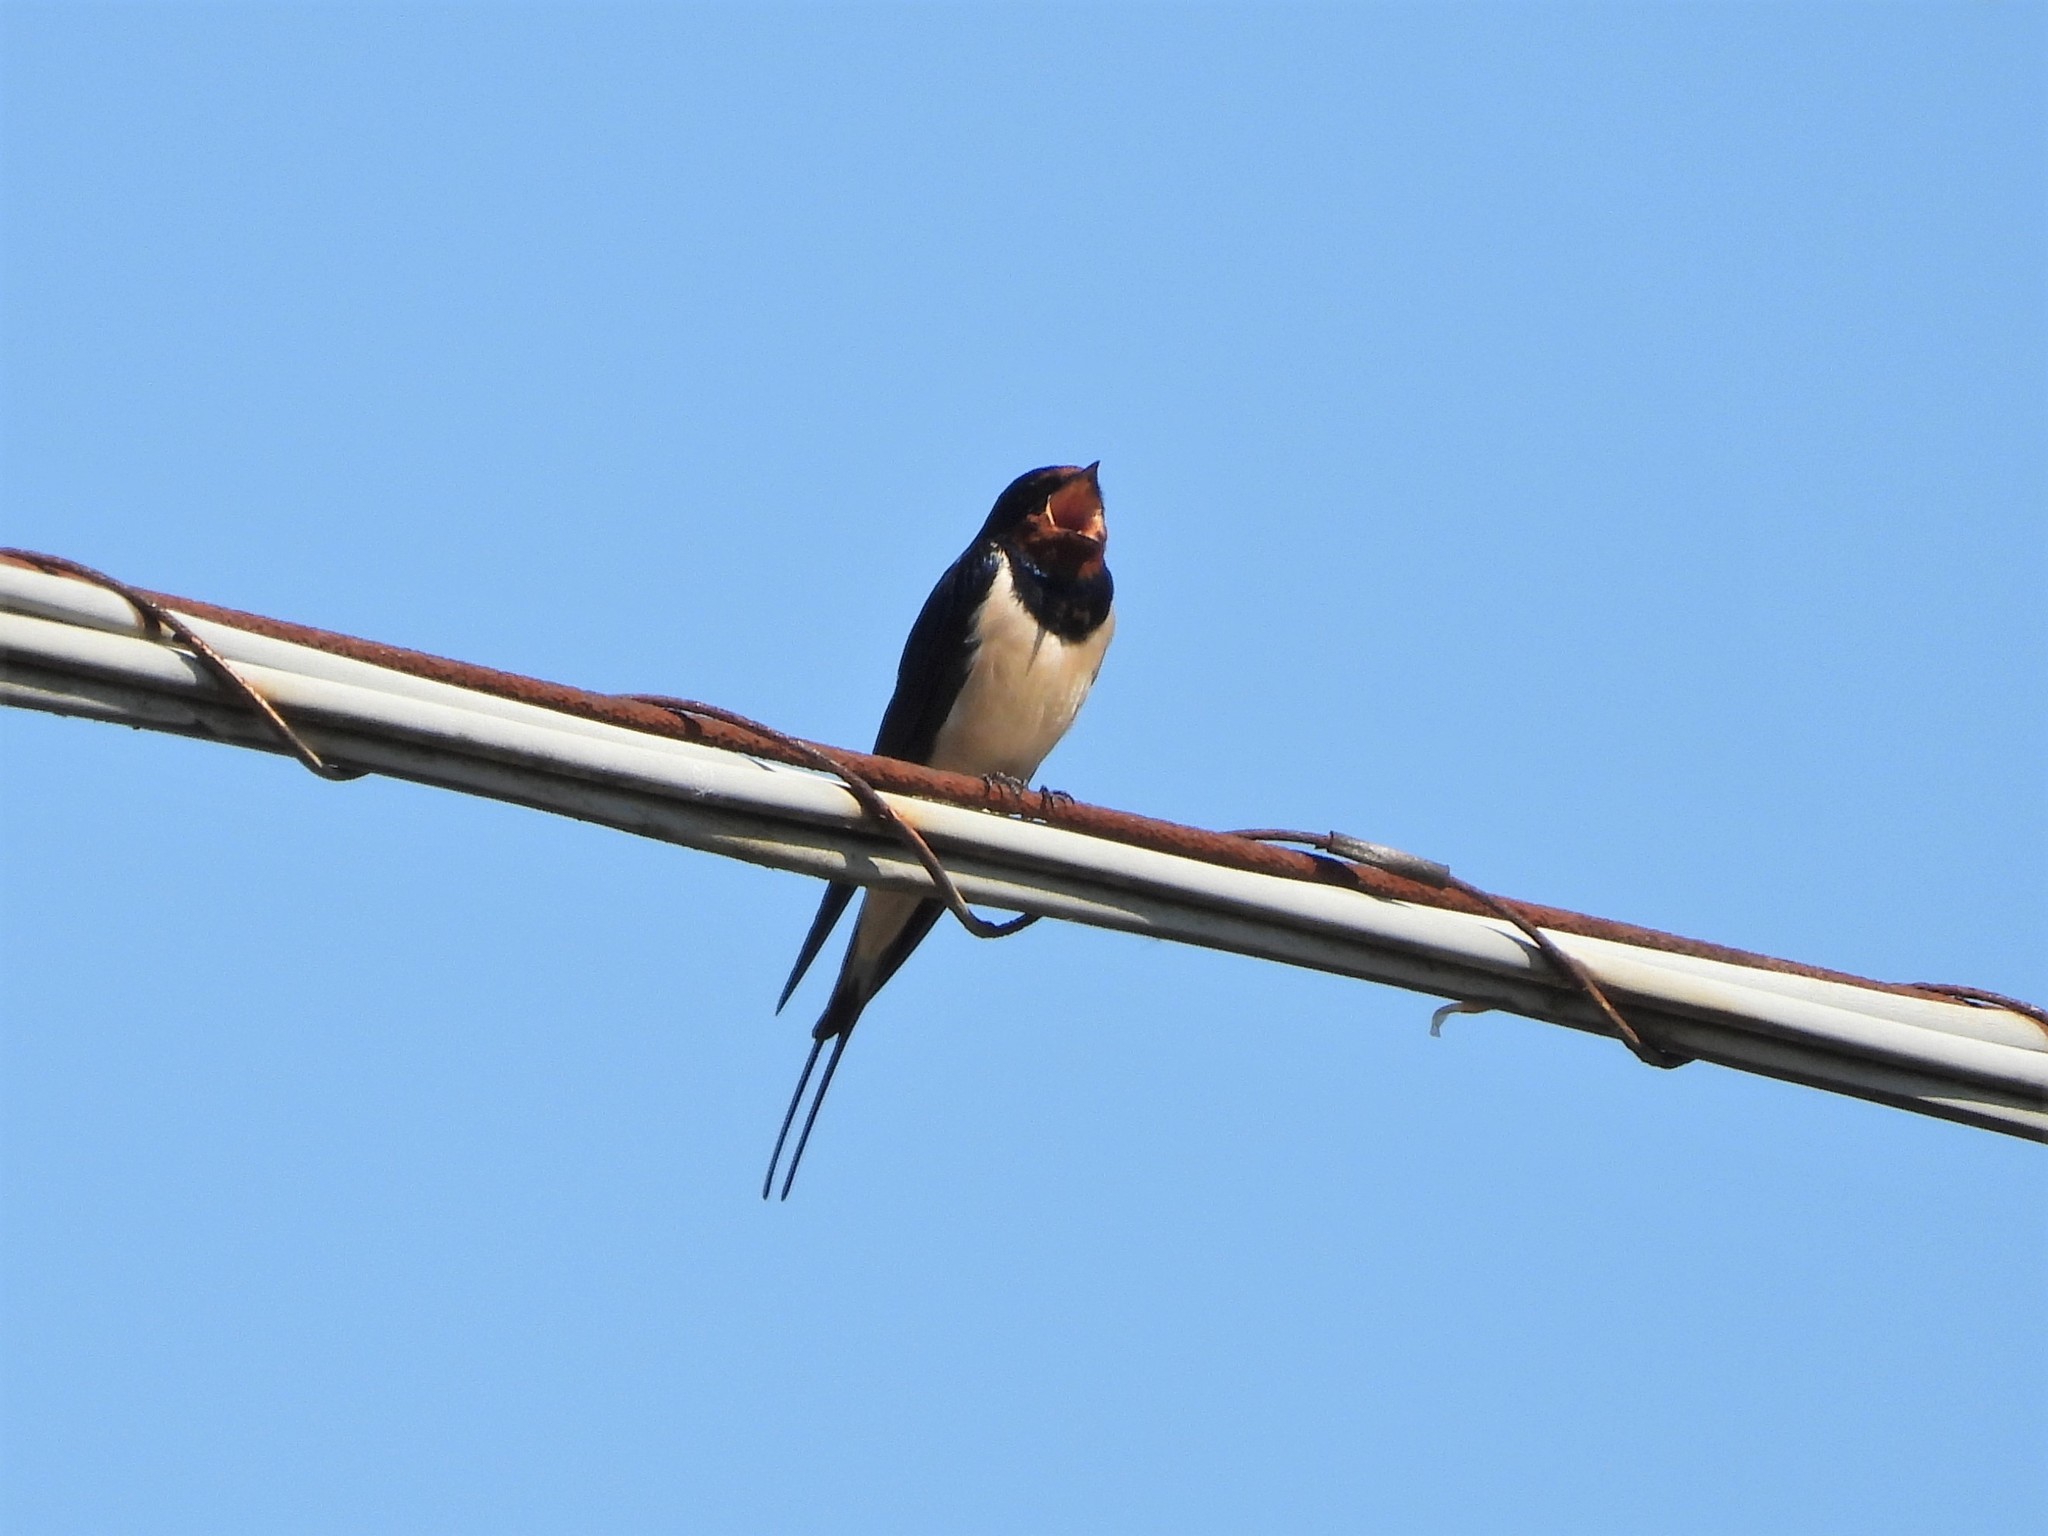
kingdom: Animalia
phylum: Chordata
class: Aves
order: Passeriformes
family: Hirundinidae
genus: Hirundo
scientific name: Hirundo rustica
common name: Barn swallow
